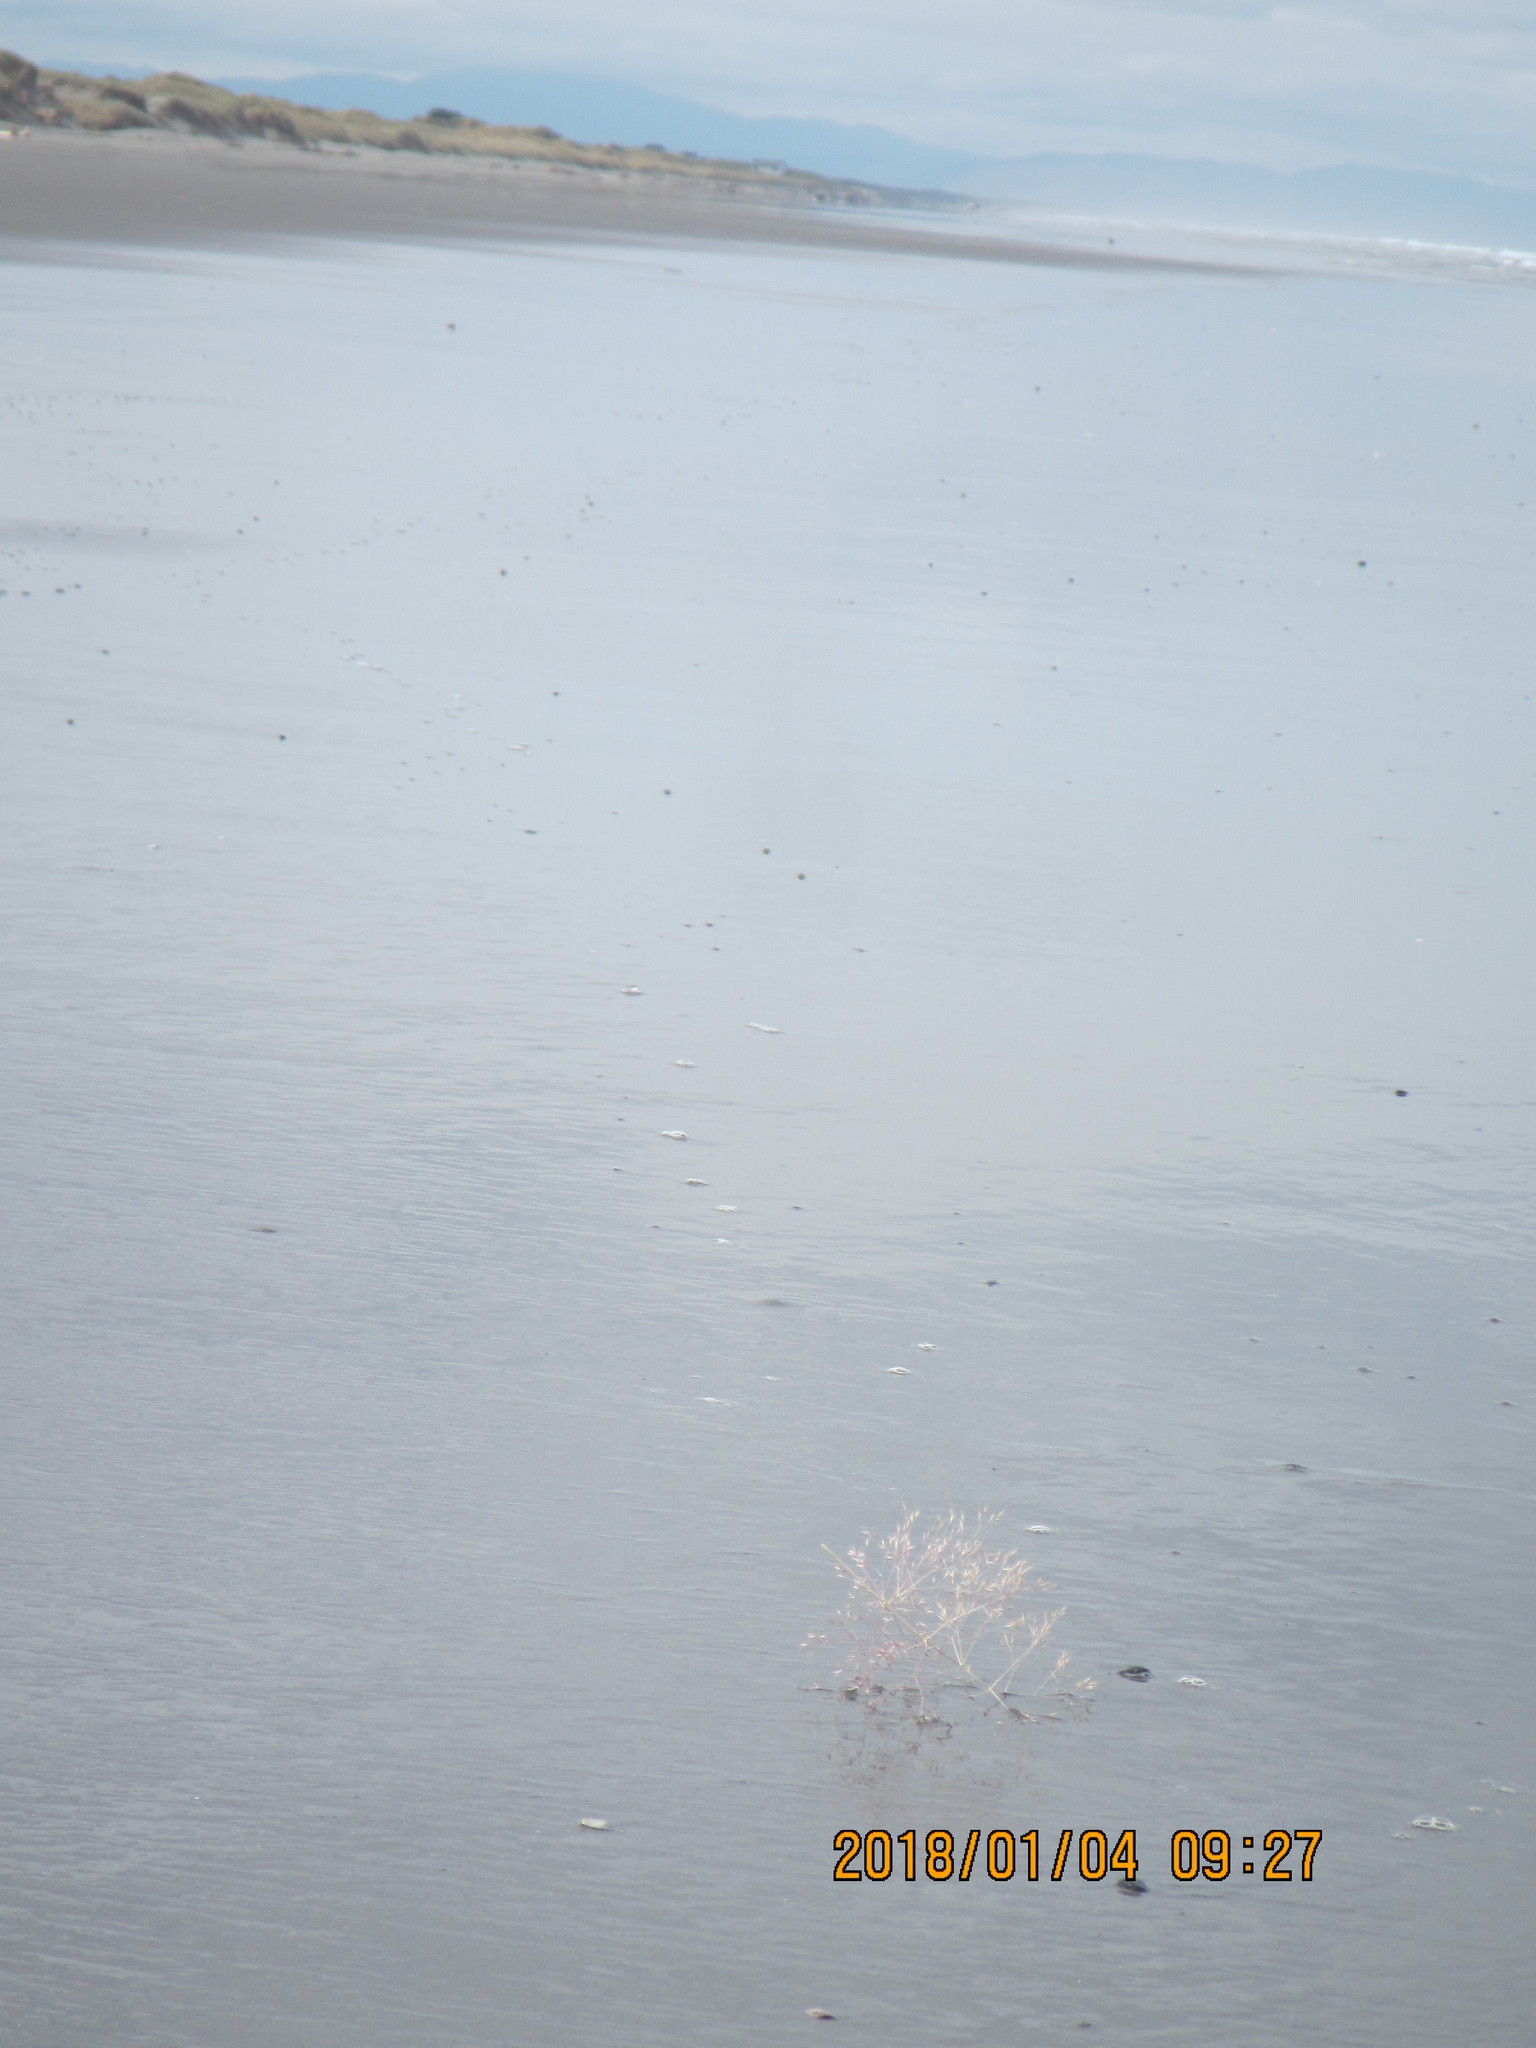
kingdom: Plantae
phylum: Tracheophyta
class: Liliopsida
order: Poales
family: Poaceae
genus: Lachnagrostis
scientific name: Lachnagrostis billardierei
